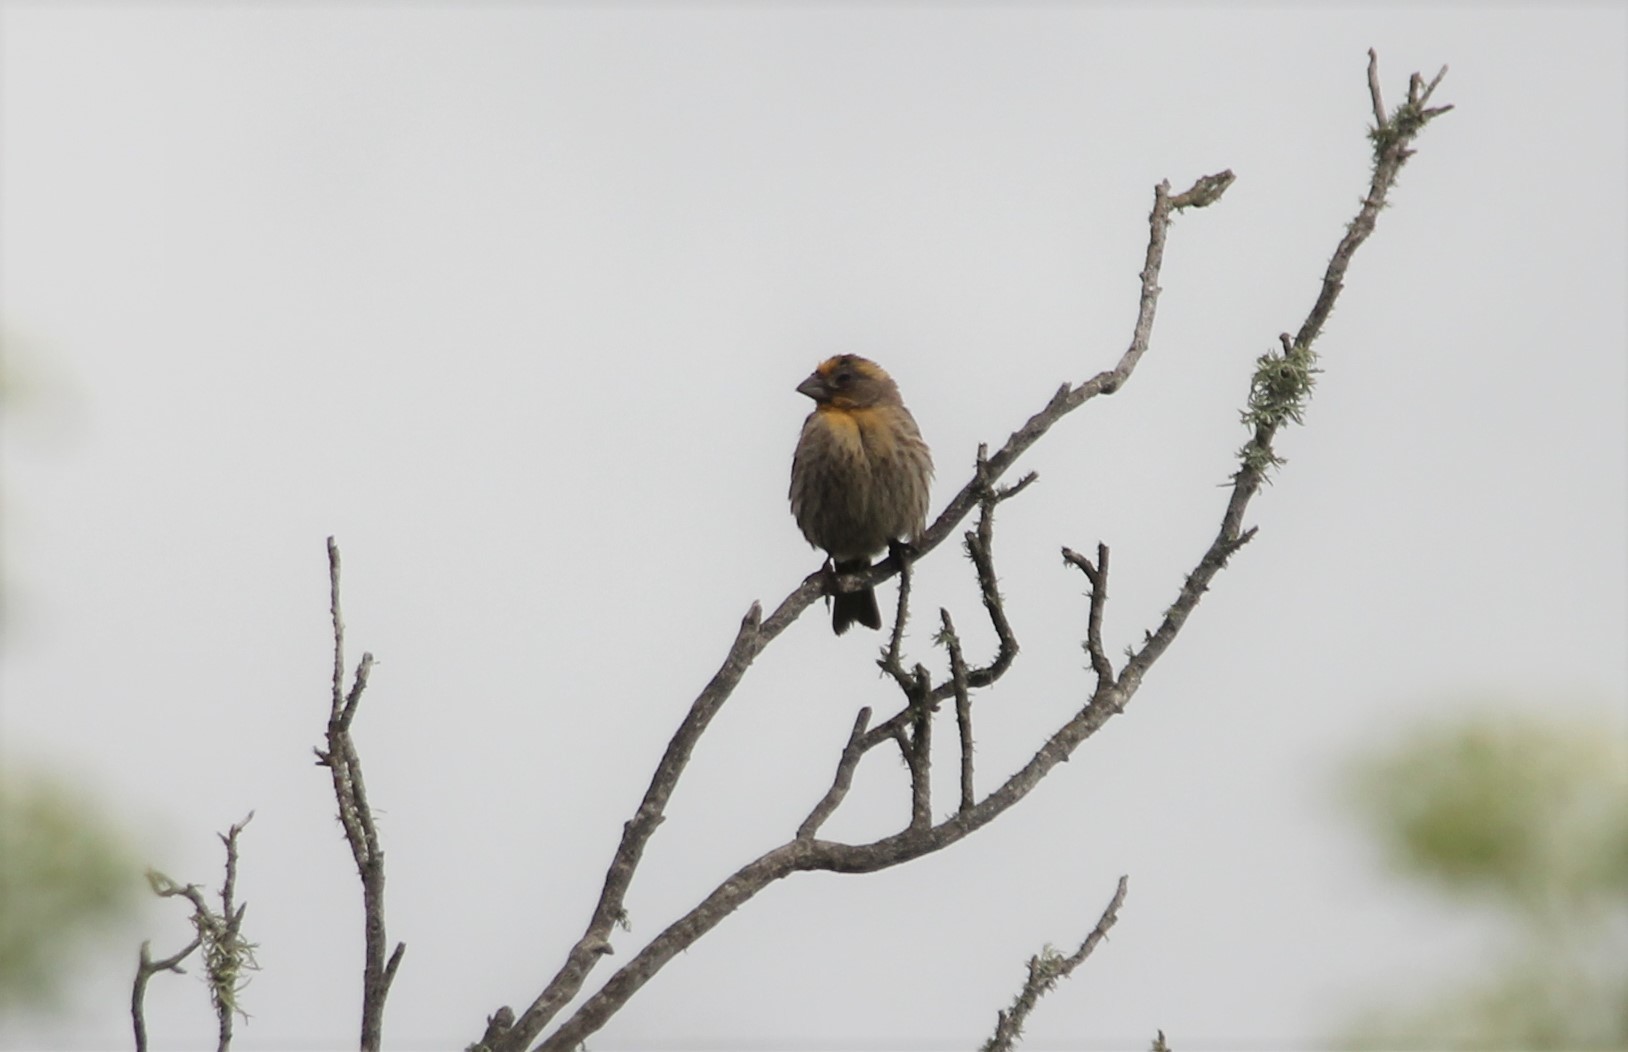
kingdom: Animalia
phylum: Chordata
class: Aves
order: Passeriformes
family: Fringillidae
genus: Haemorhous
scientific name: Haemorhous mexicanus
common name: House finch
